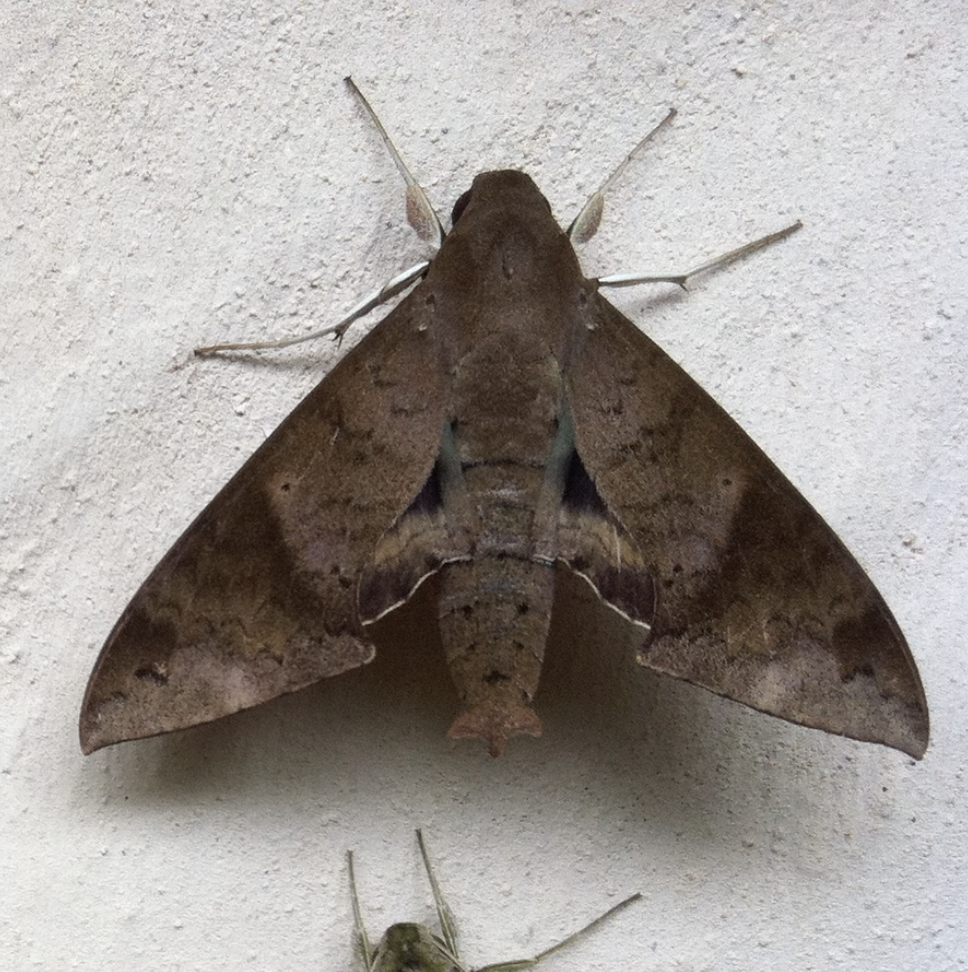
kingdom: Animalia
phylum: Arthropoda
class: Insecta
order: Lepidoptera
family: Sphingidae
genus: Pachylioides
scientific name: Pachylioides resumens
